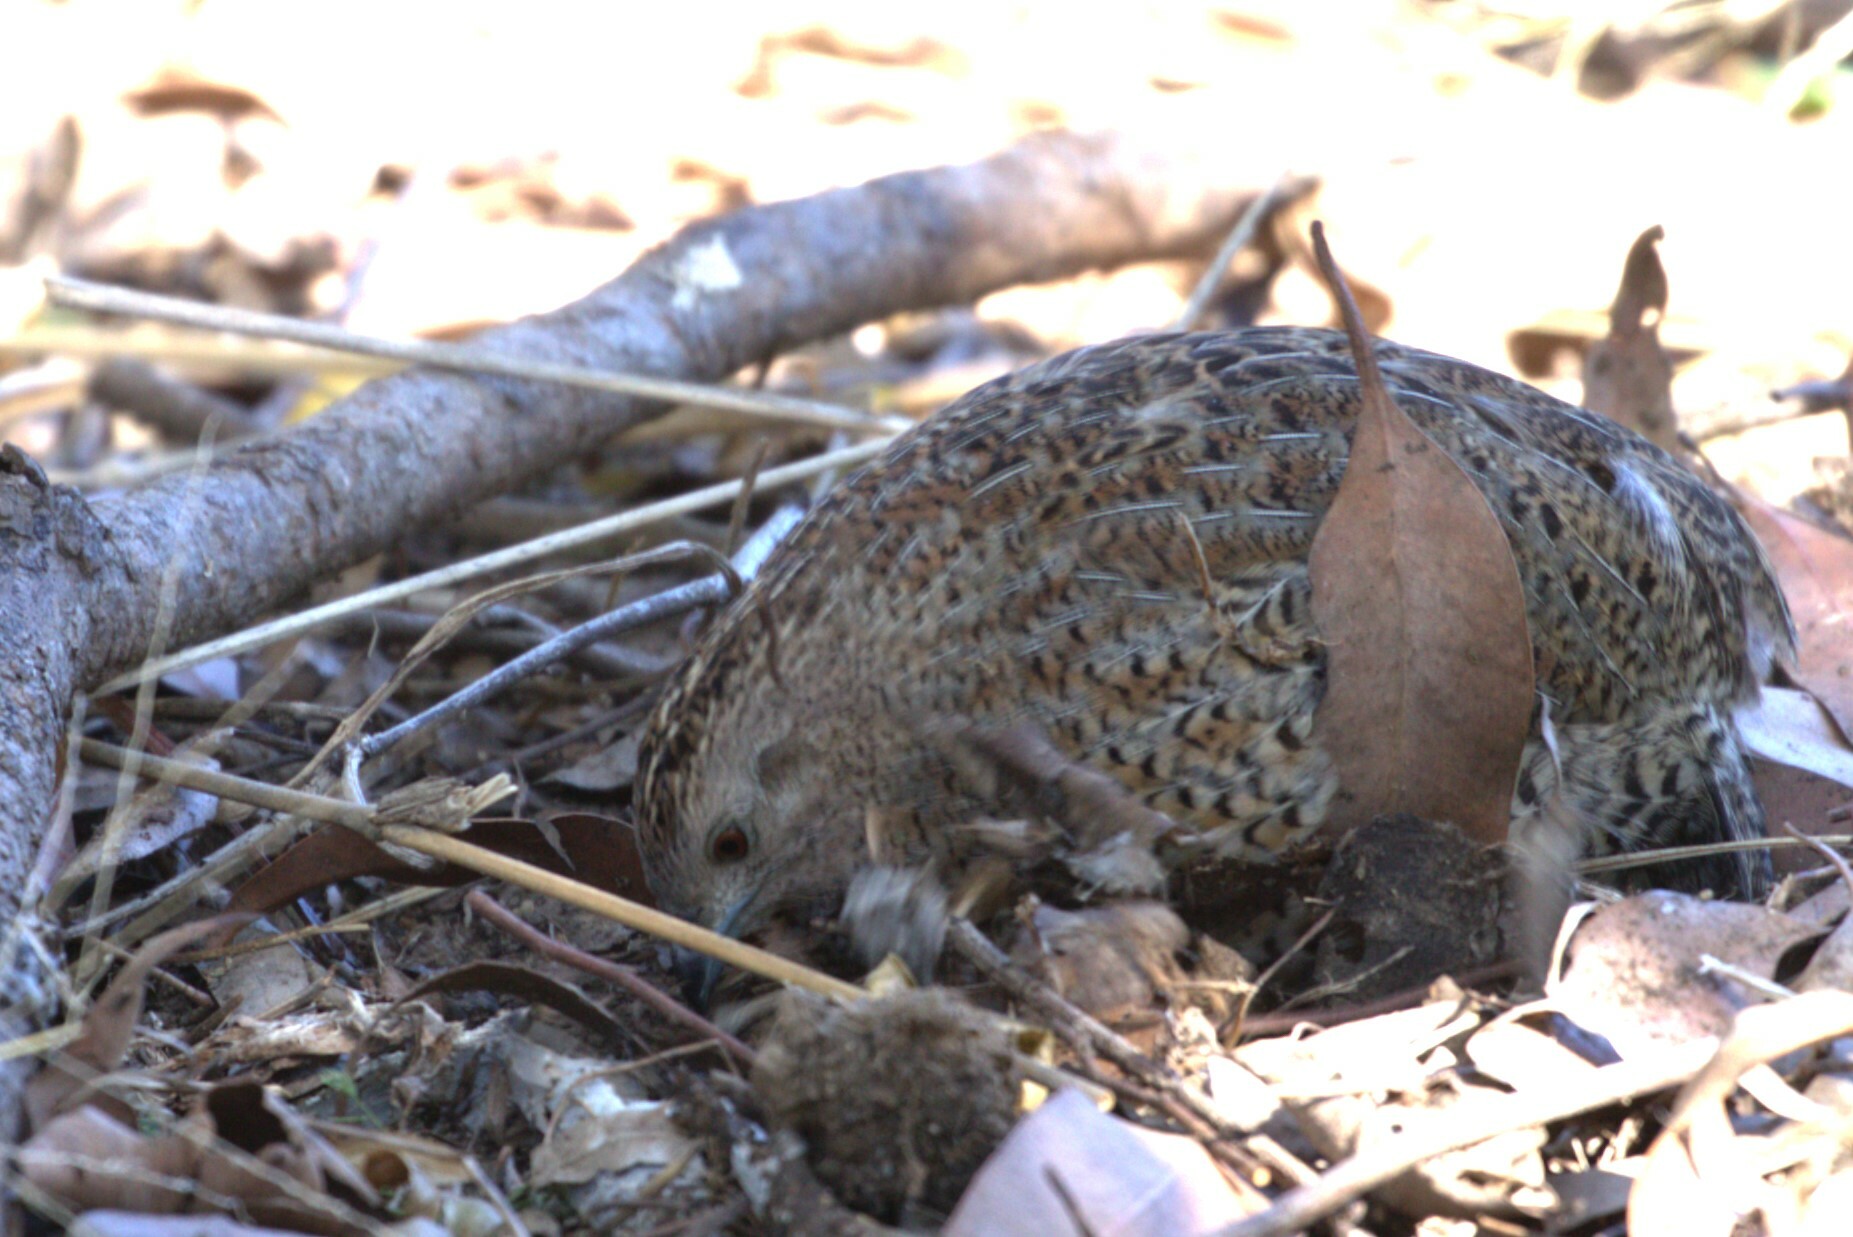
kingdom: Animalia
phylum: Chordata
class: Aves
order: Galliformes
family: Phasianidae
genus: Synoicus
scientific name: Synoicus ypsilophorus
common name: Brown quail
